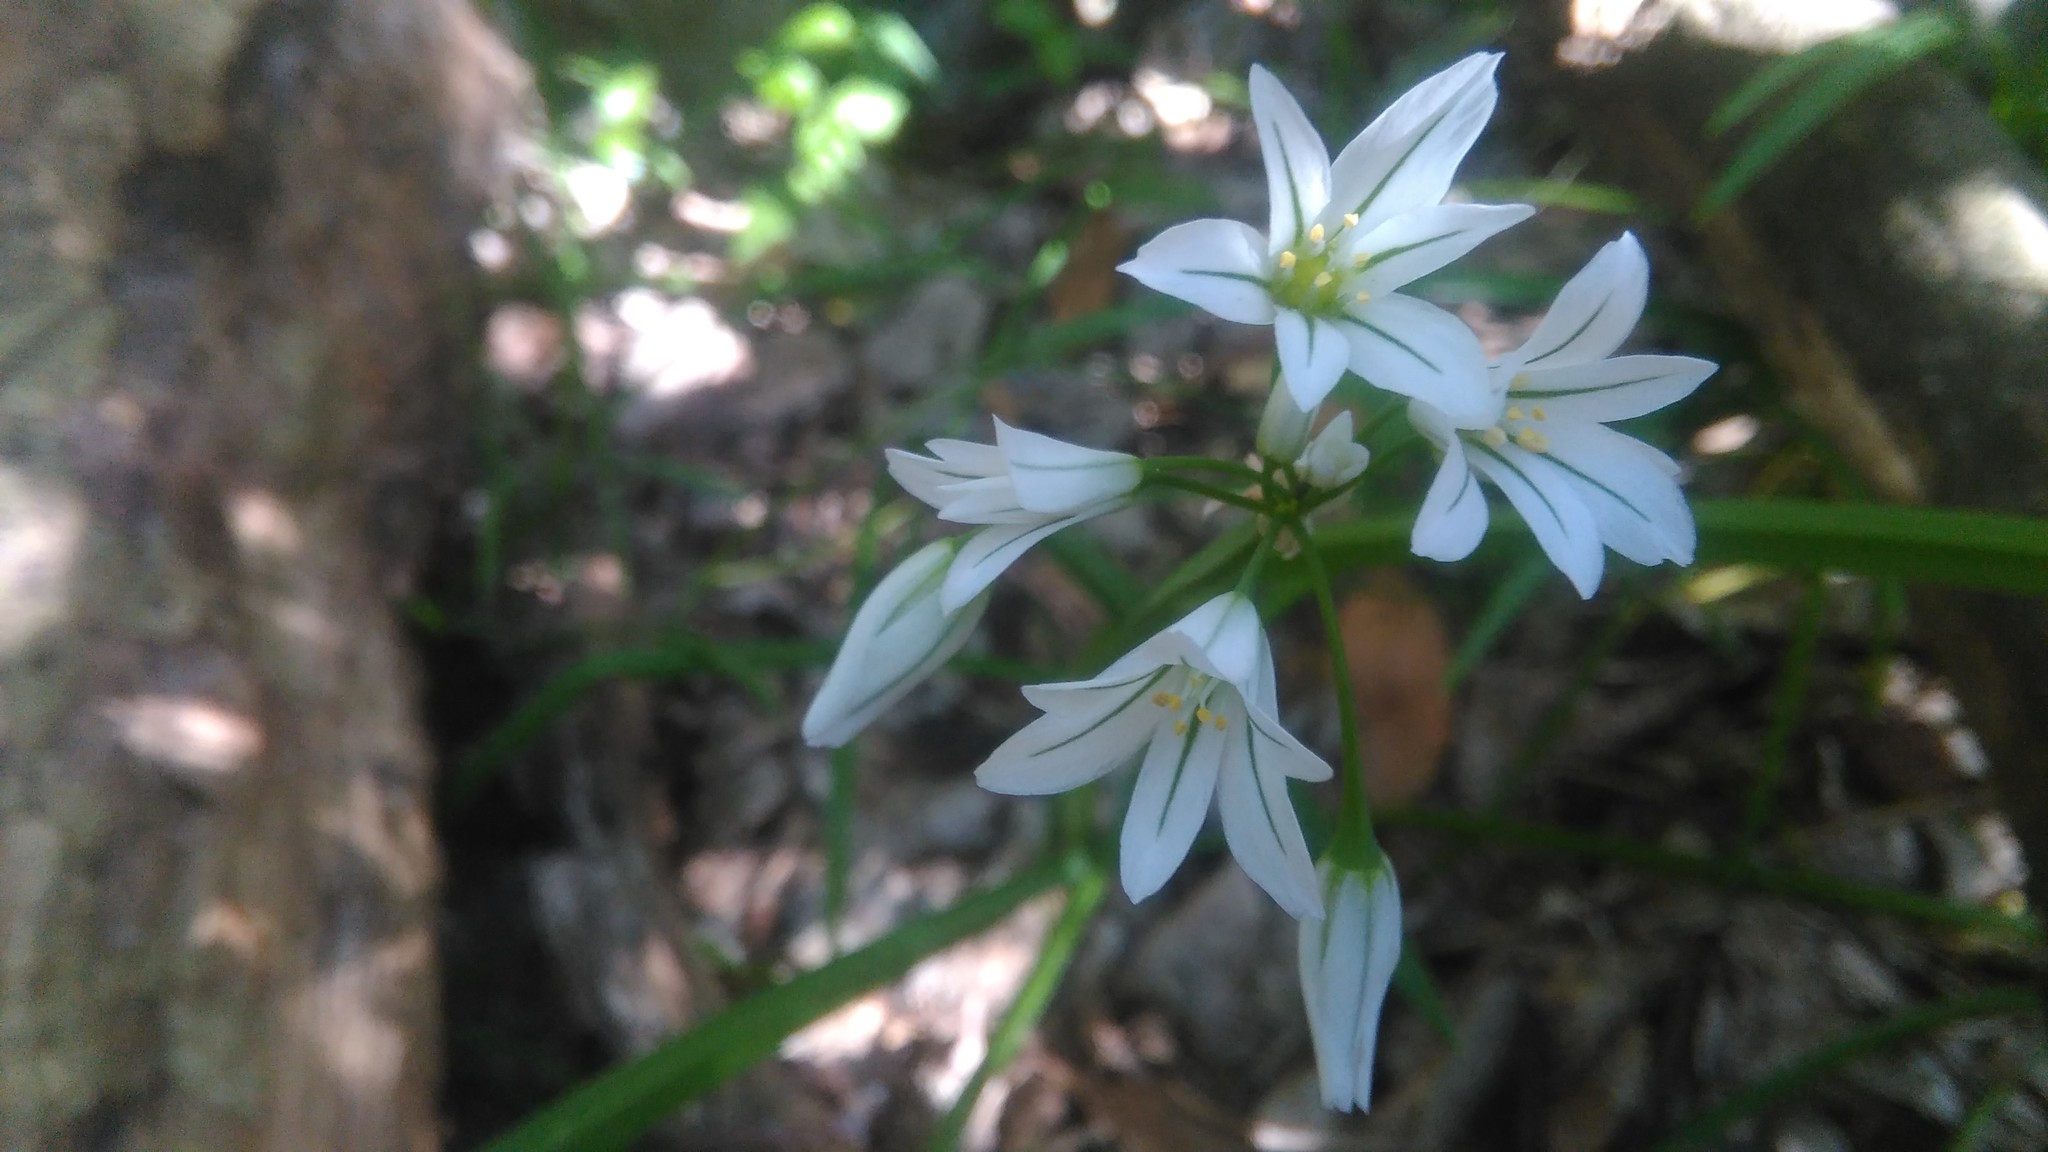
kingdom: Plantae
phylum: Tracheophyta
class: Liliopsida
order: Asparagales
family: Amaryllidaceae
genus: Allium
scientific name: Allium triquetrum
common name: Three-cornered garlic
